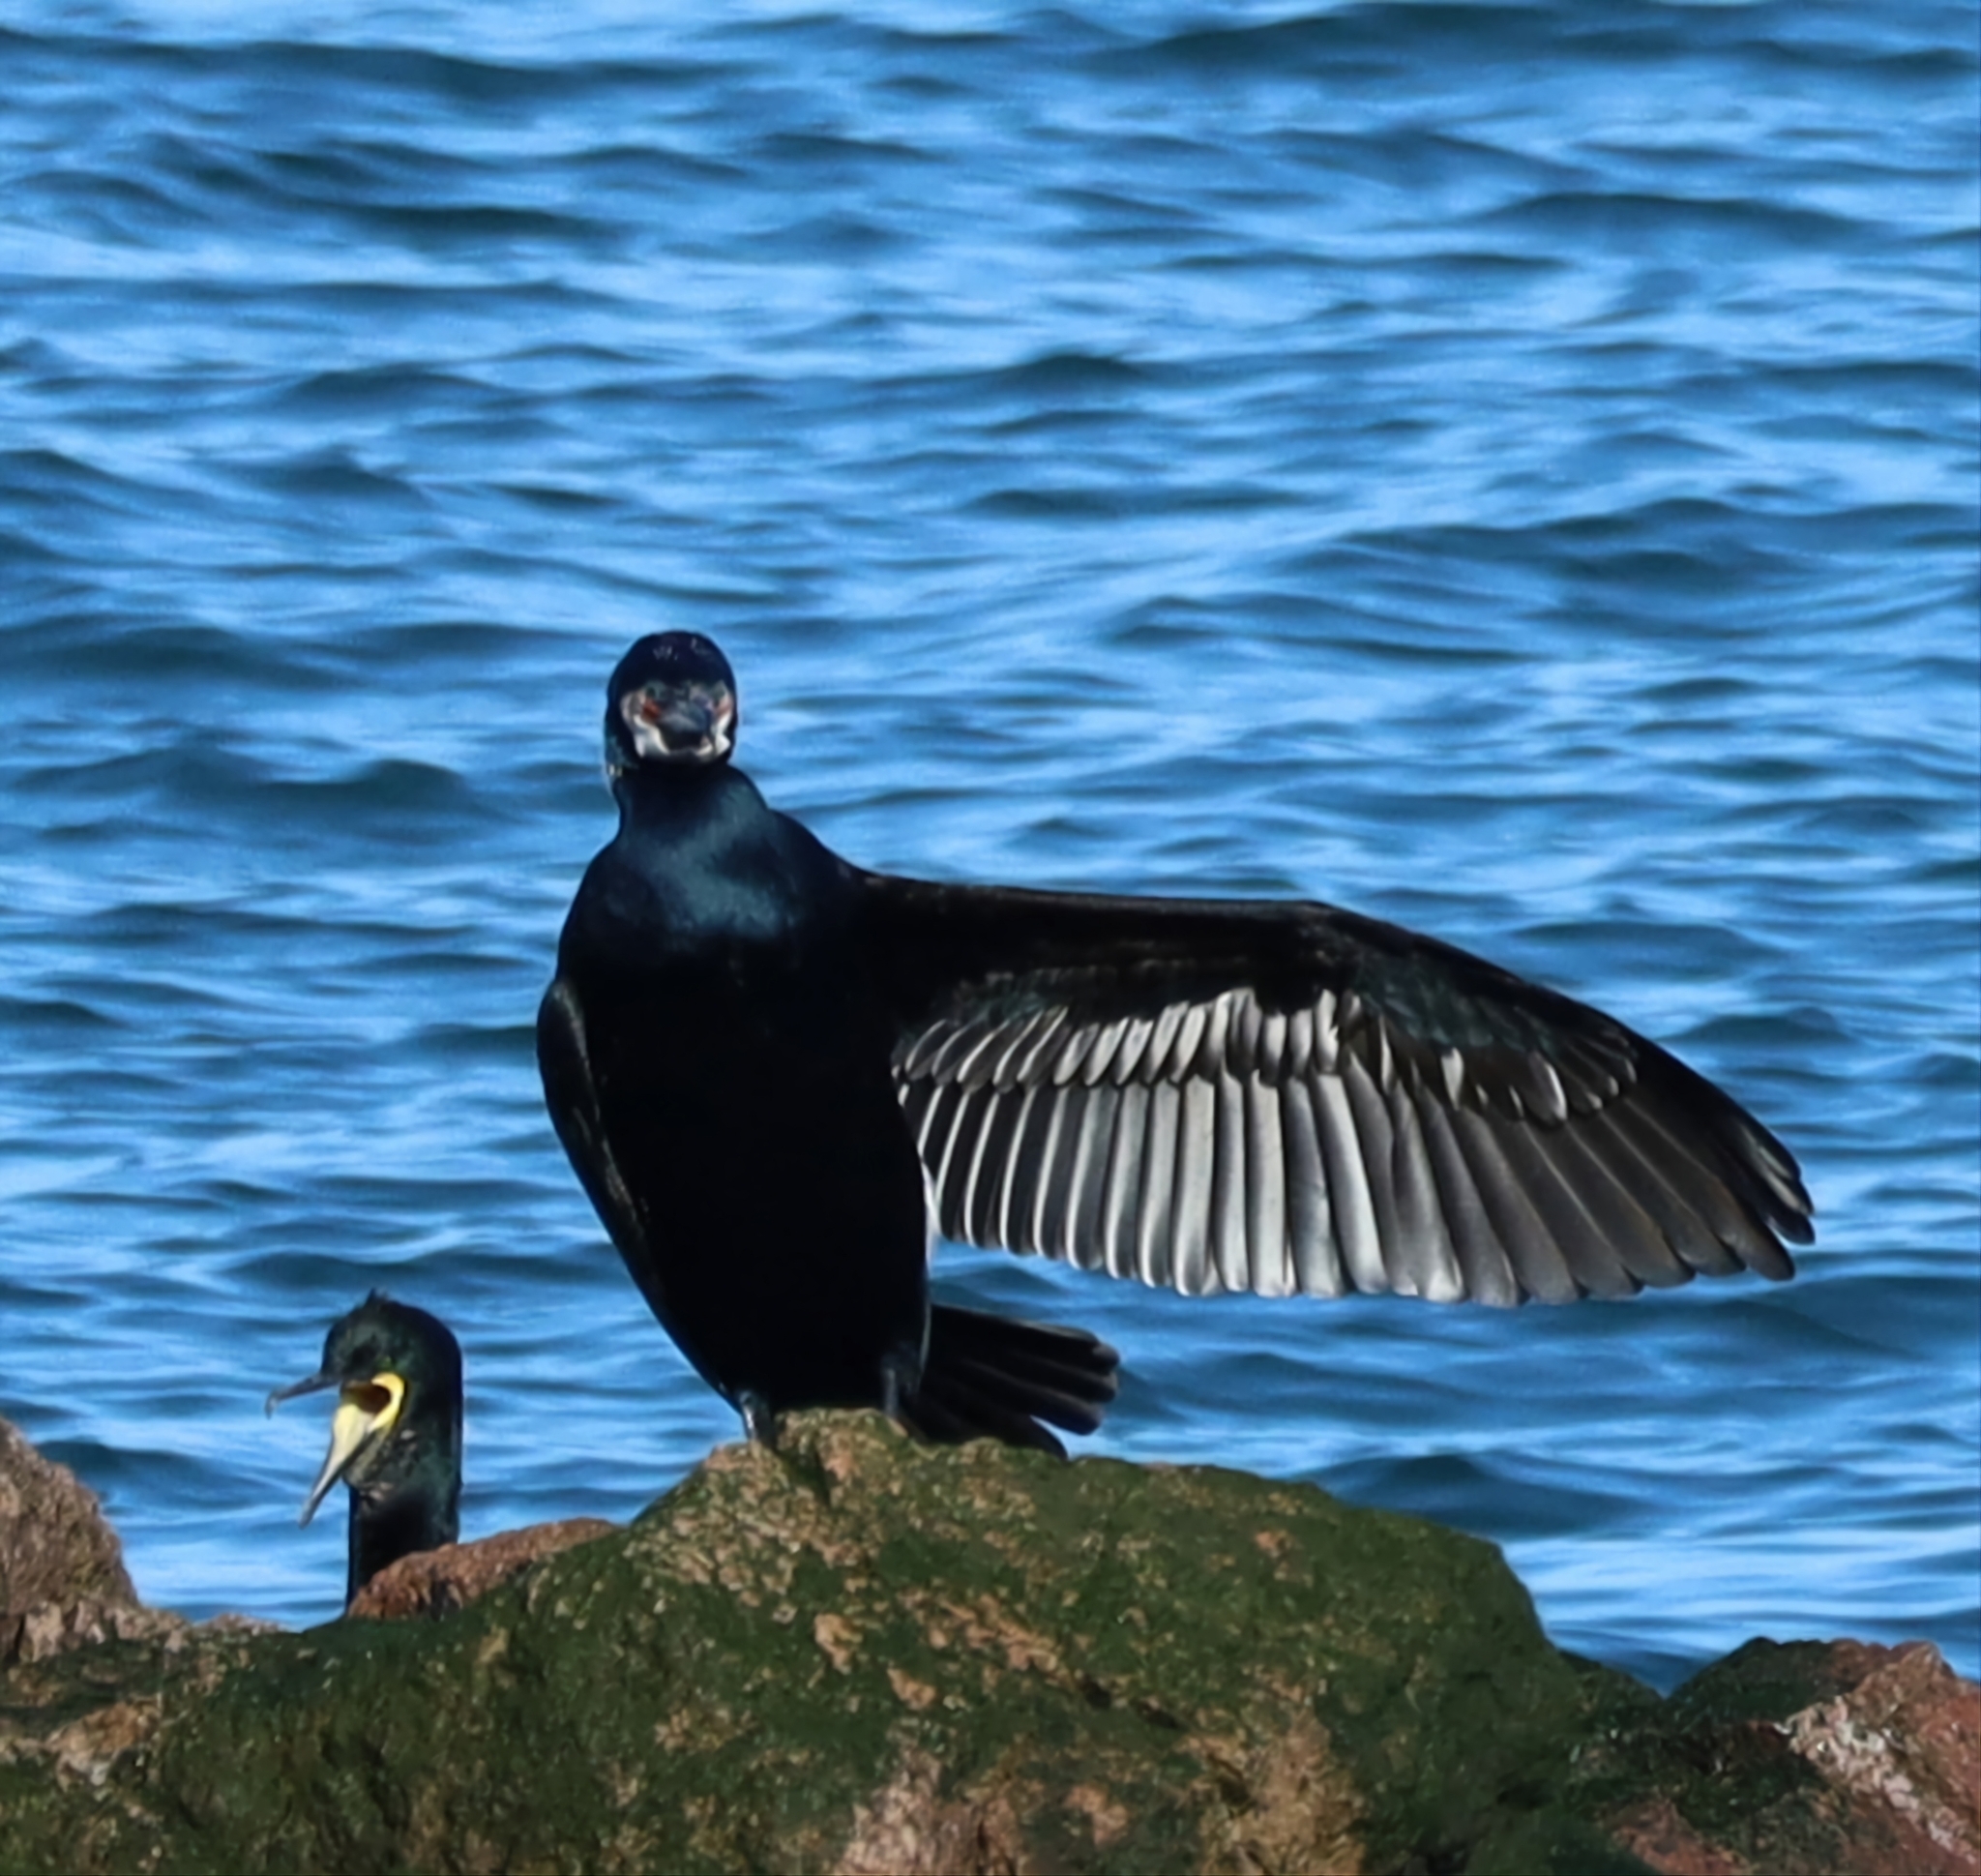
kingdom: Animalia
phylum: Chordata
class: Aves
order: Suliformes
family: Phalacrocoracidae
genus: Phalacrocorax
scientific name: Phalacrocorax carbo
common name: Great cormorant
